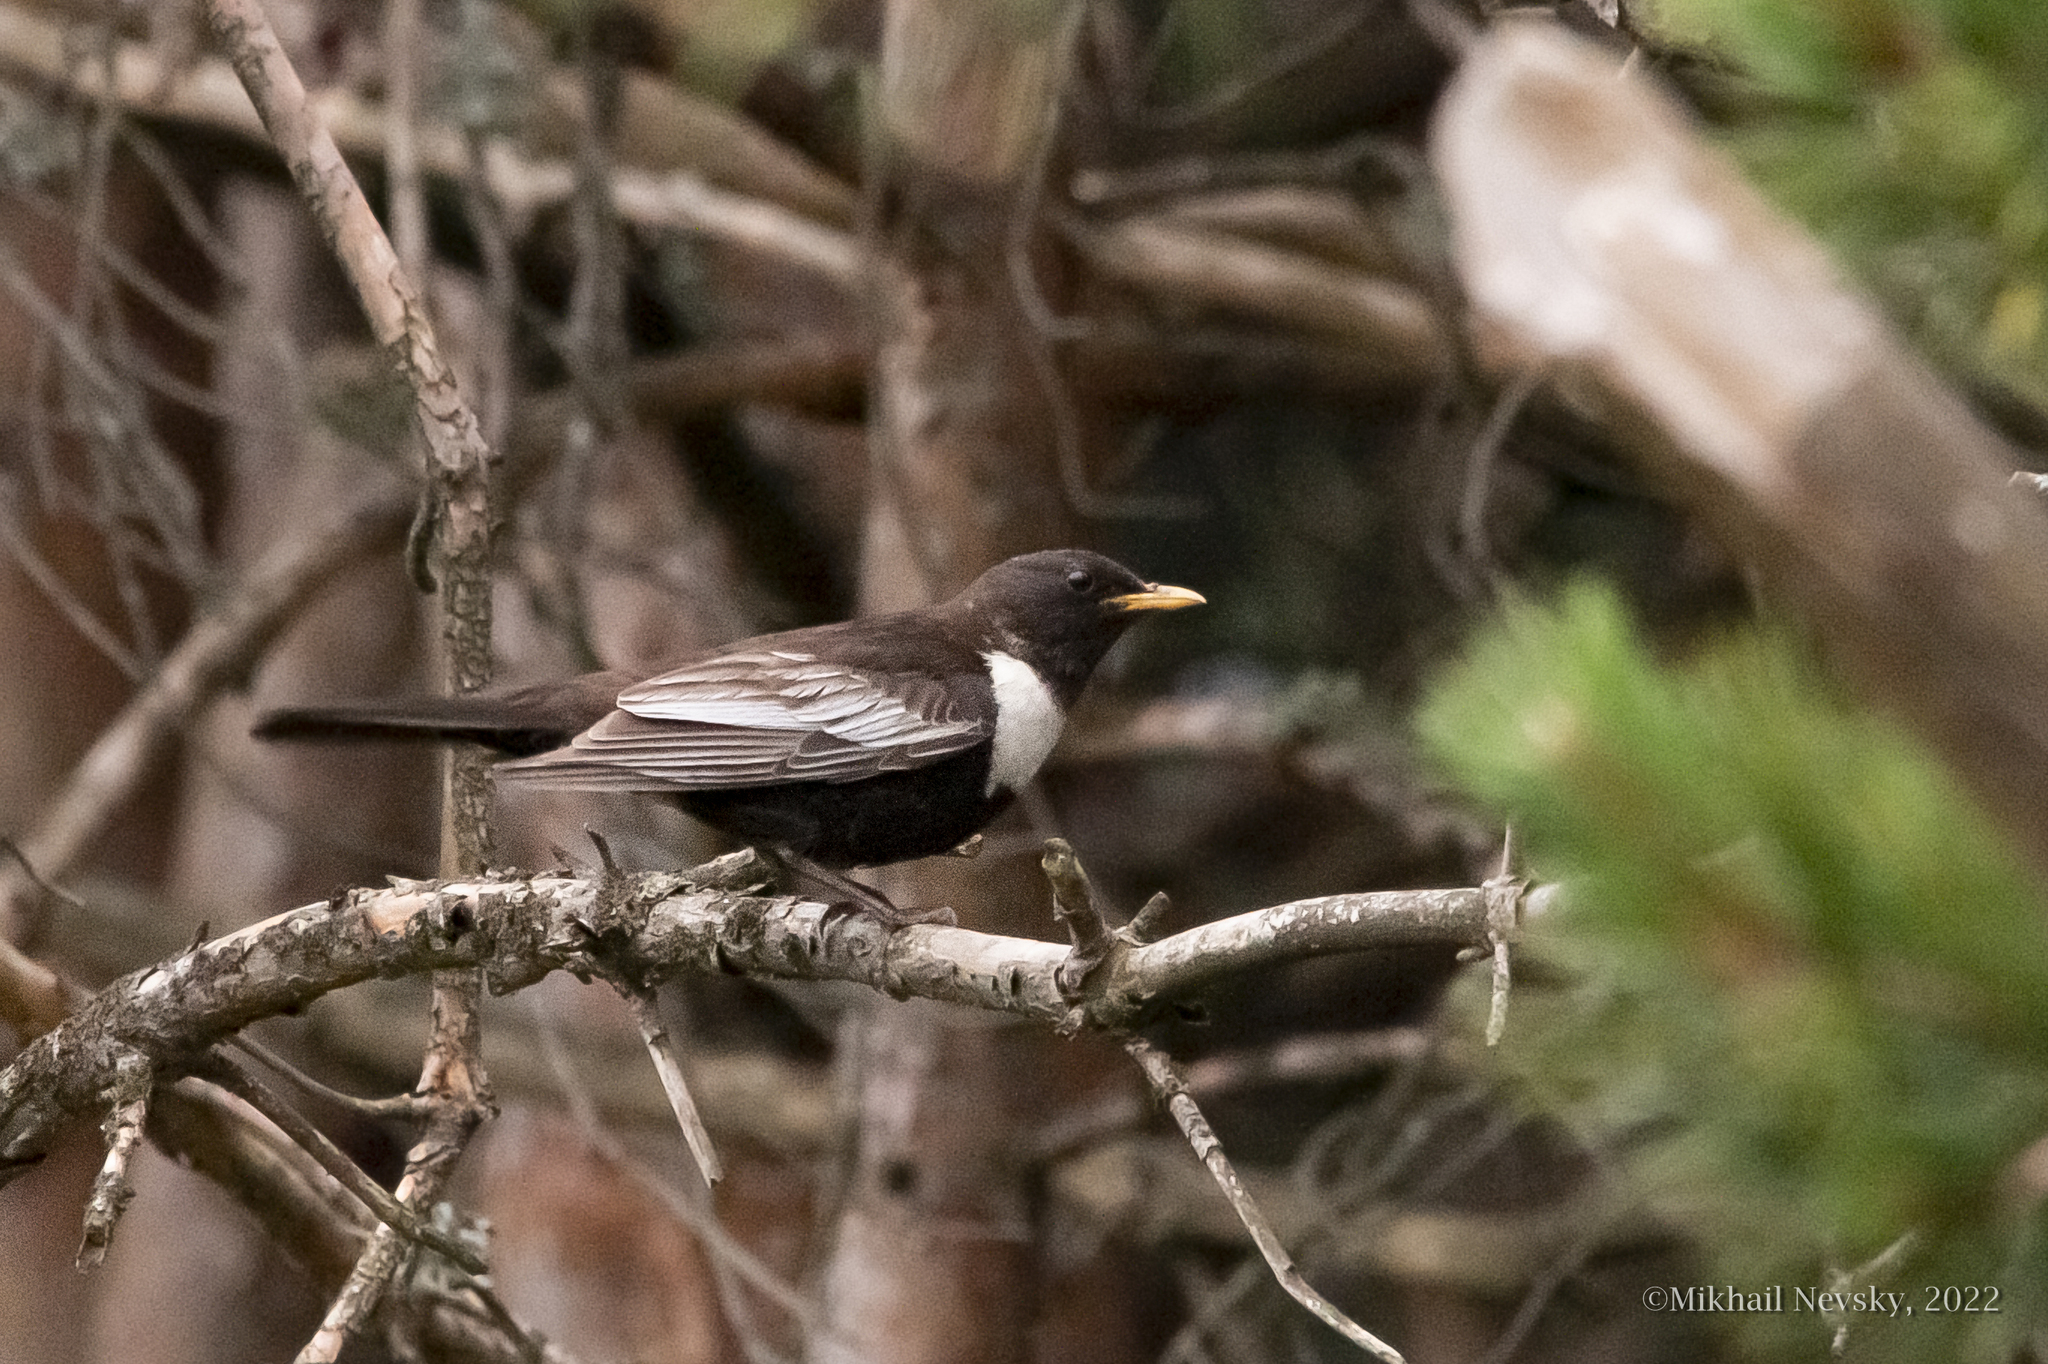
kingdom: Animalia
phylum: Chordata
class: Aves
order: Passeriformes
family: Turdidae
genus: Turdus
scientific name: Turdus torquatus
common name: Ring ouzel
